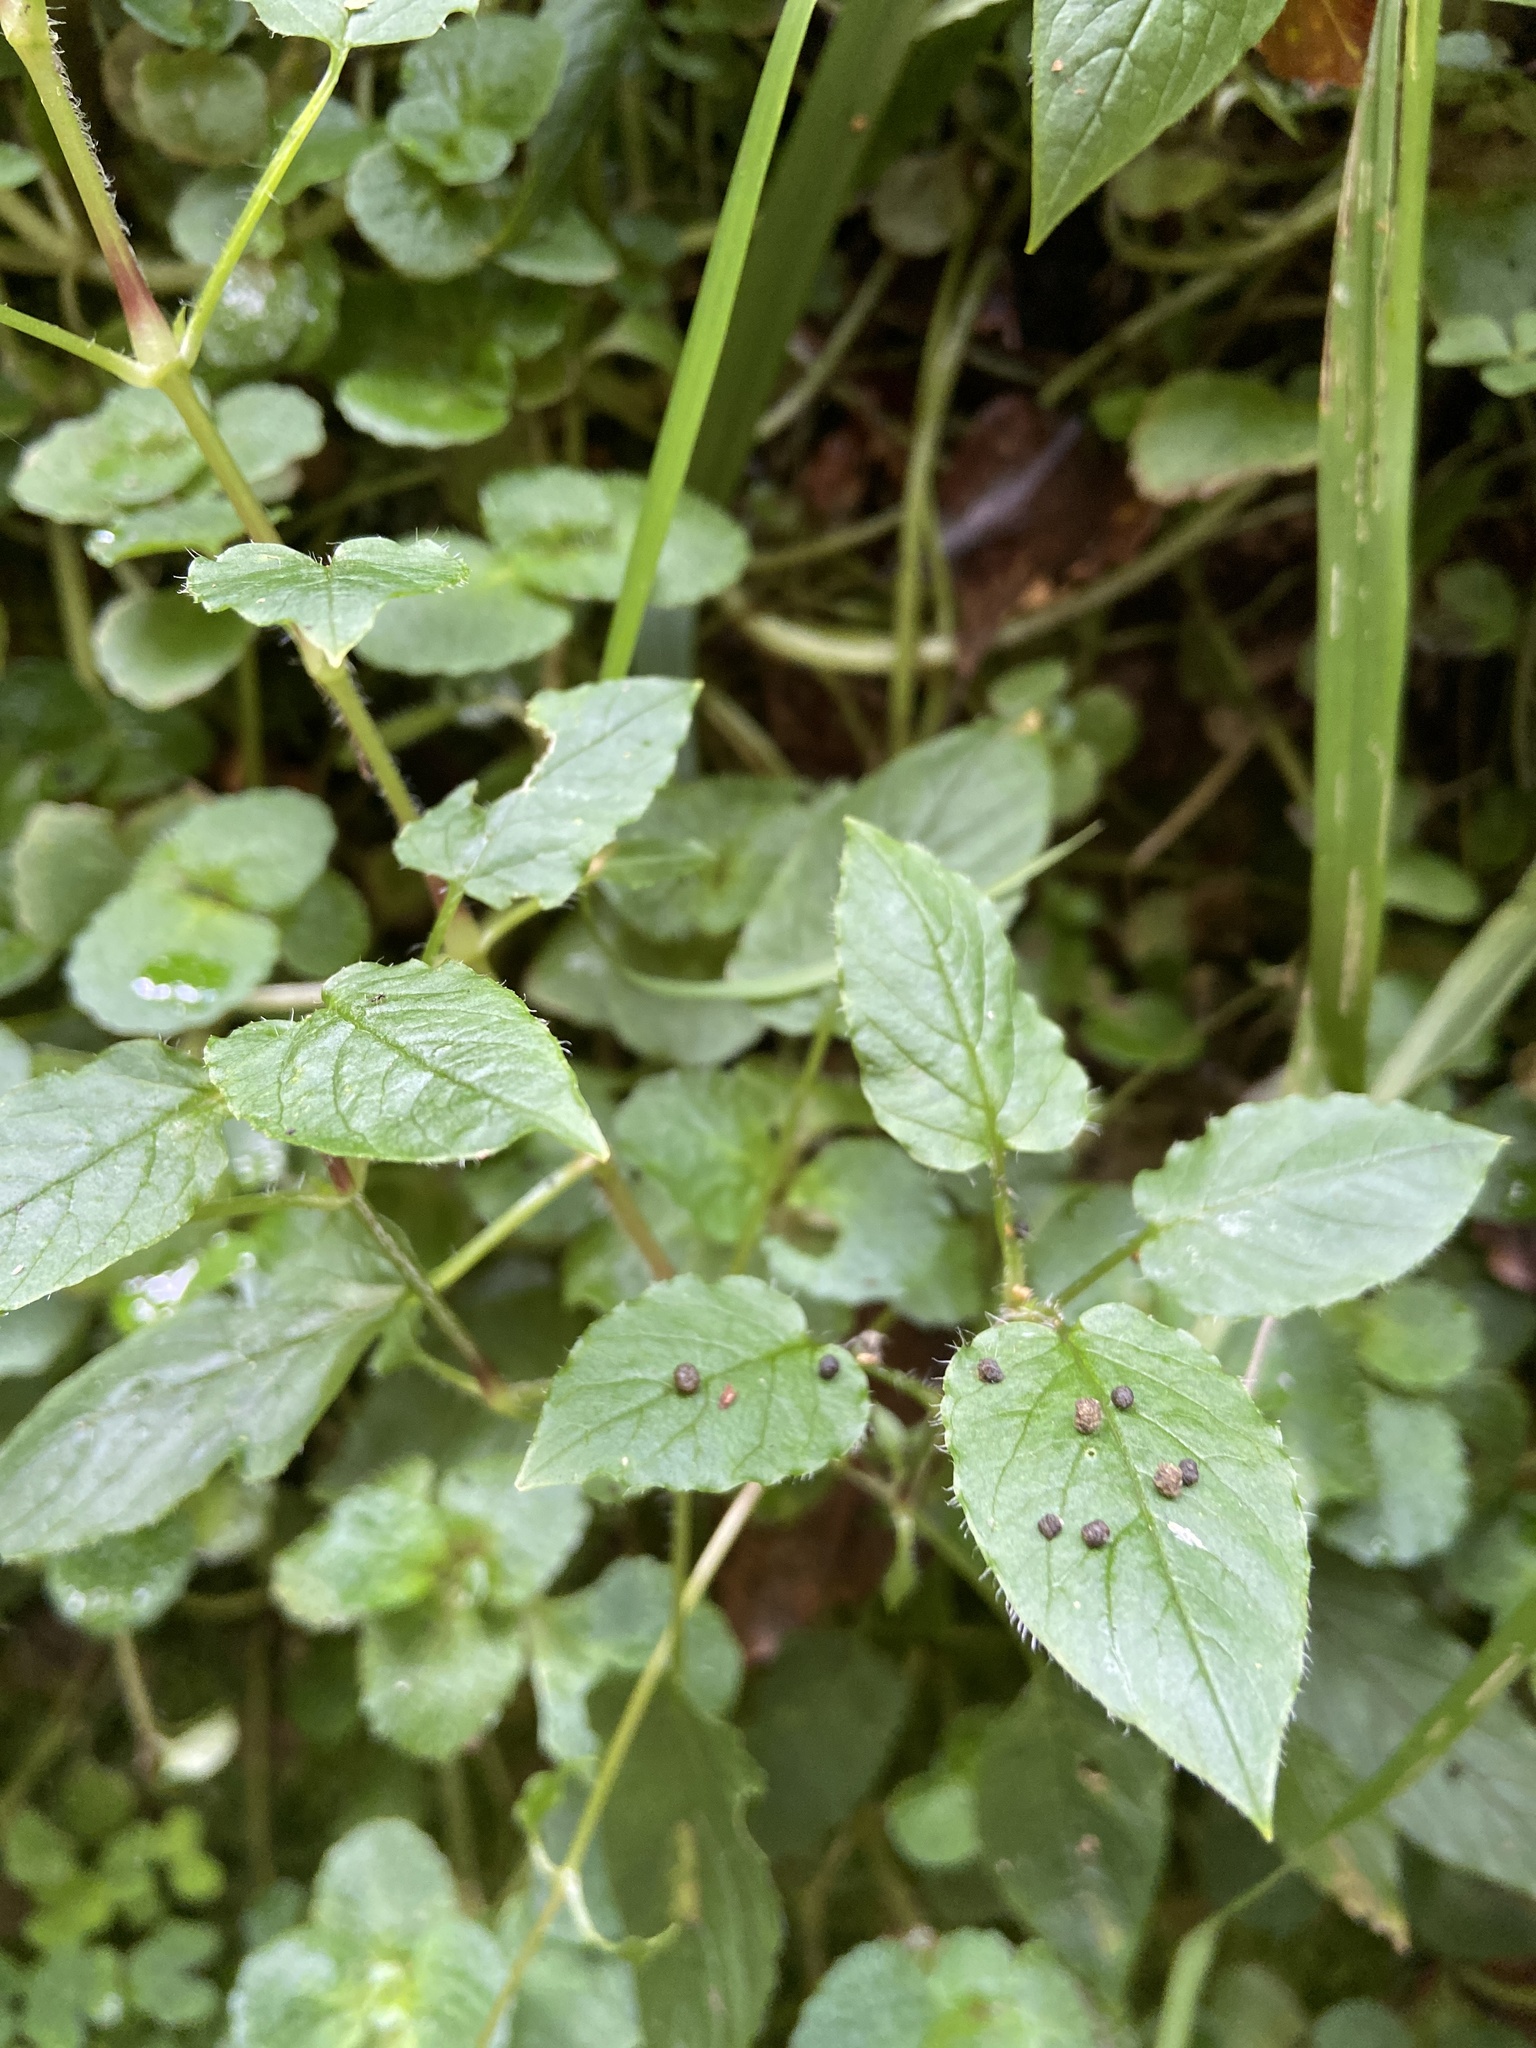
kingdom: Plantae
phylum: Tracheophyta
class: Magnoliopsida
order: Caryophyllales
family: Caryophyllaceae
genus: Stellaria
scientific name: Stellaria nemorum
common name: Wood stitchwort
